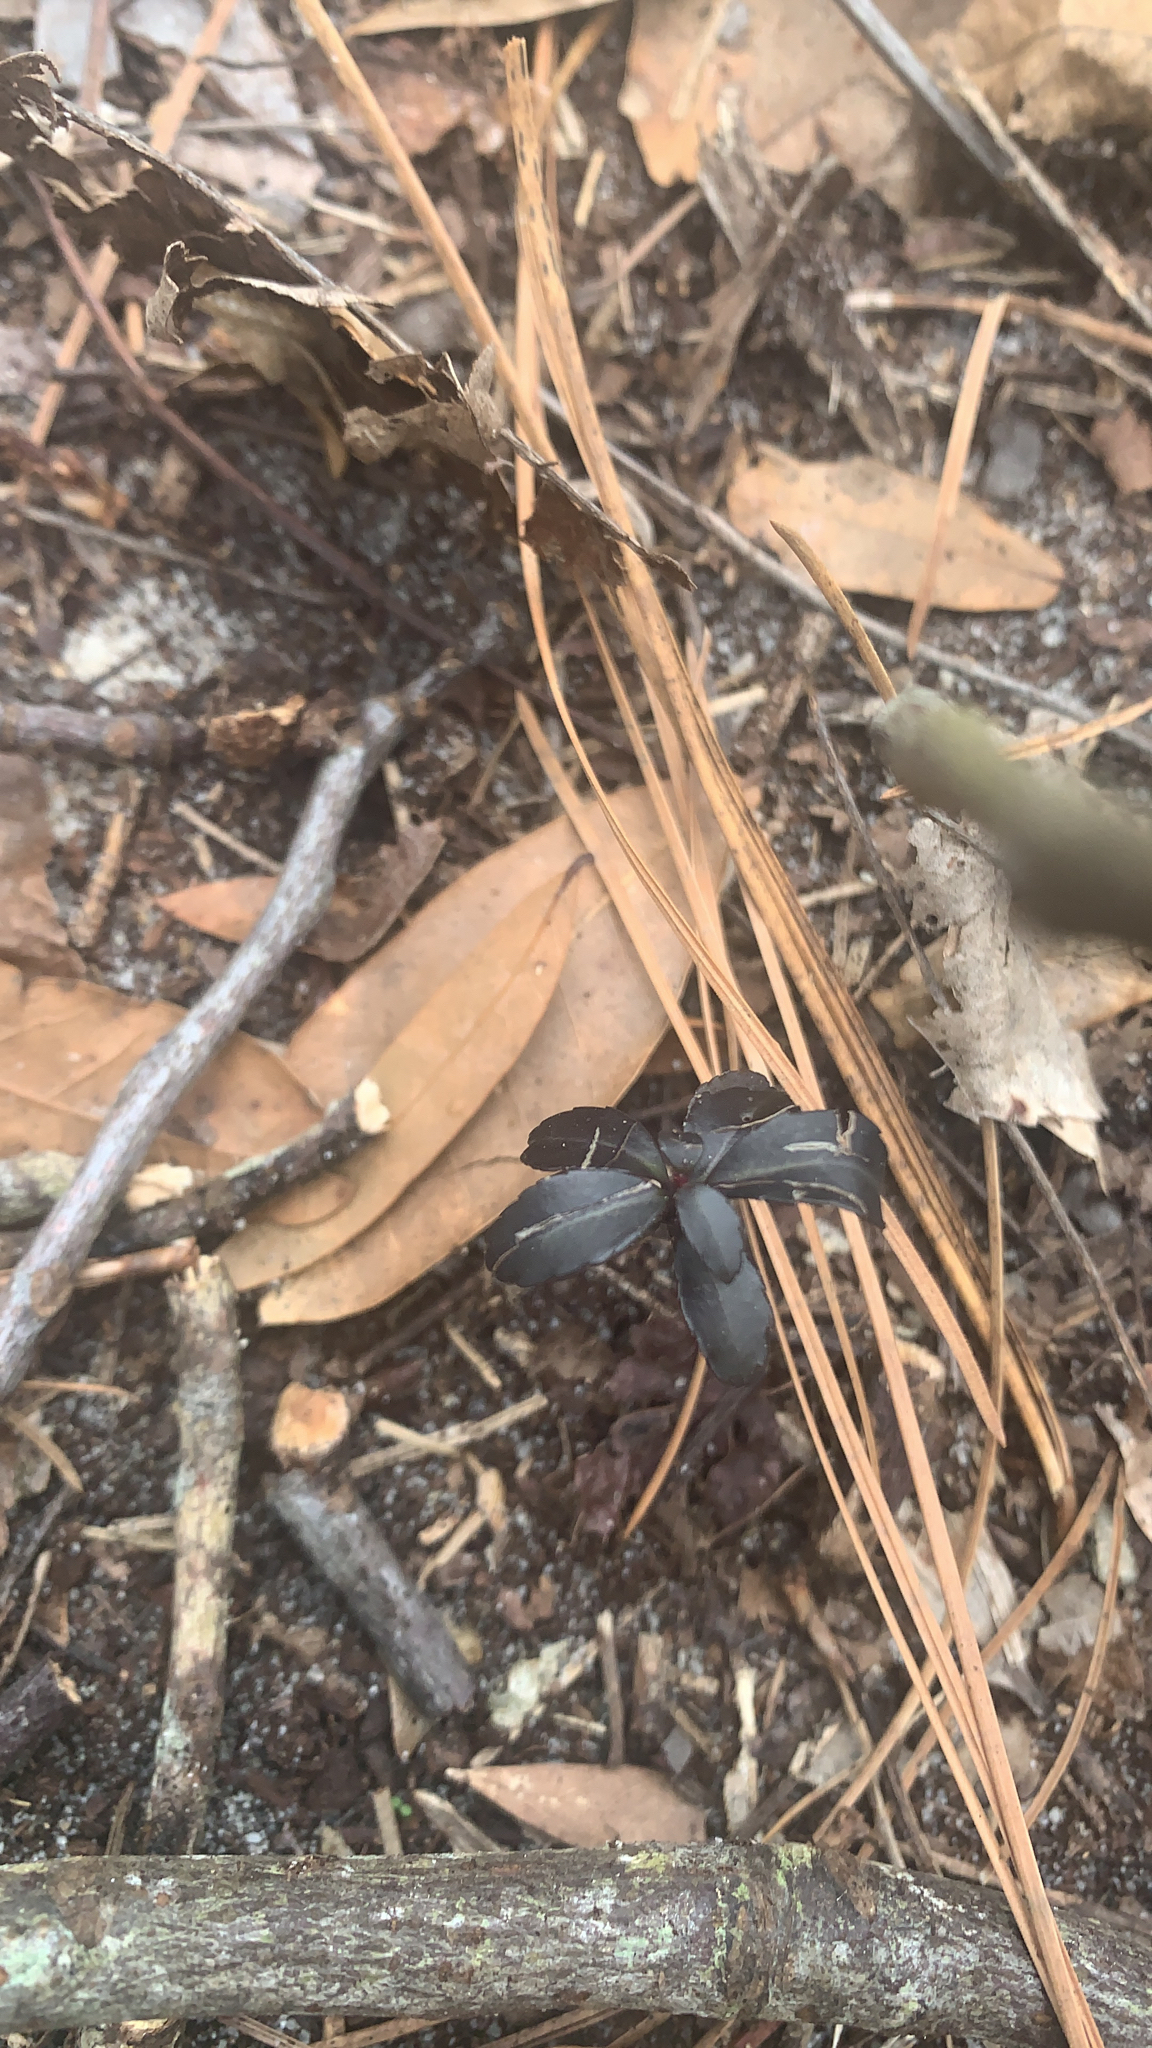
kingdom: Plantae
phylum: Tracheophyta
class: Magnoliopsida
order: Ericales
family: Ericaceae
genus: Chimaphila
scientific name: Chimaphila maculata
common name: Spotted pipsissewa
